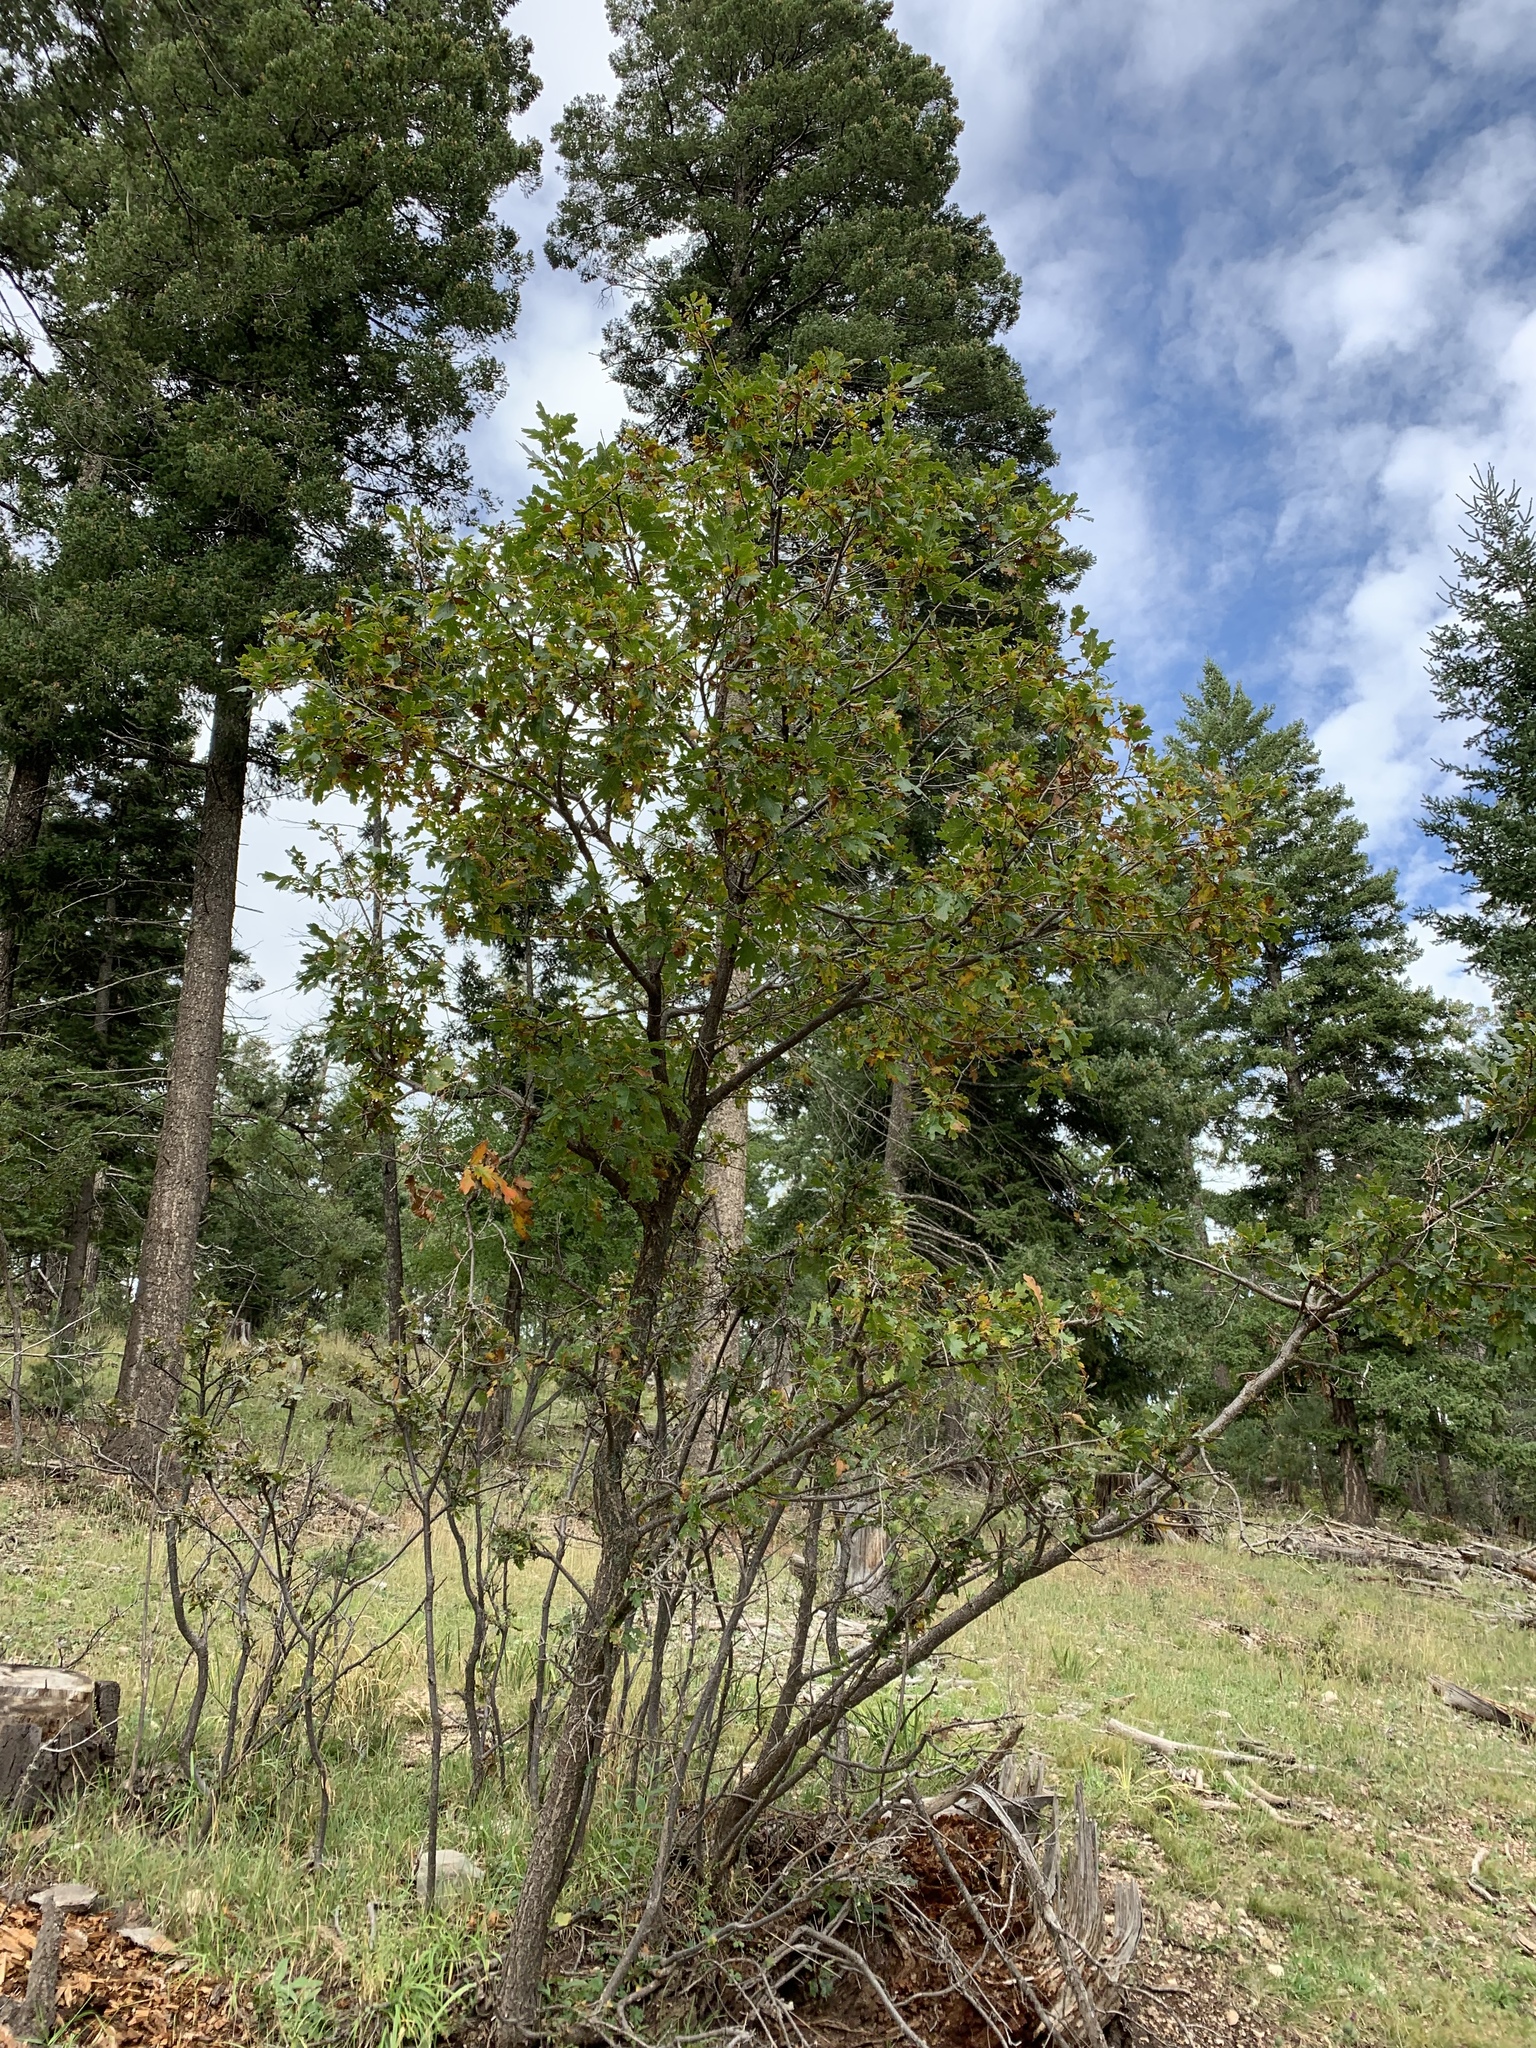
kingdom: Plantae
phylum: Tracheophyta
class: Magnoliopsida
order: Fagales
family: Fagaceae
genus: Quercus
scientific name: Quercus gambelii
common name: Gambel oak
